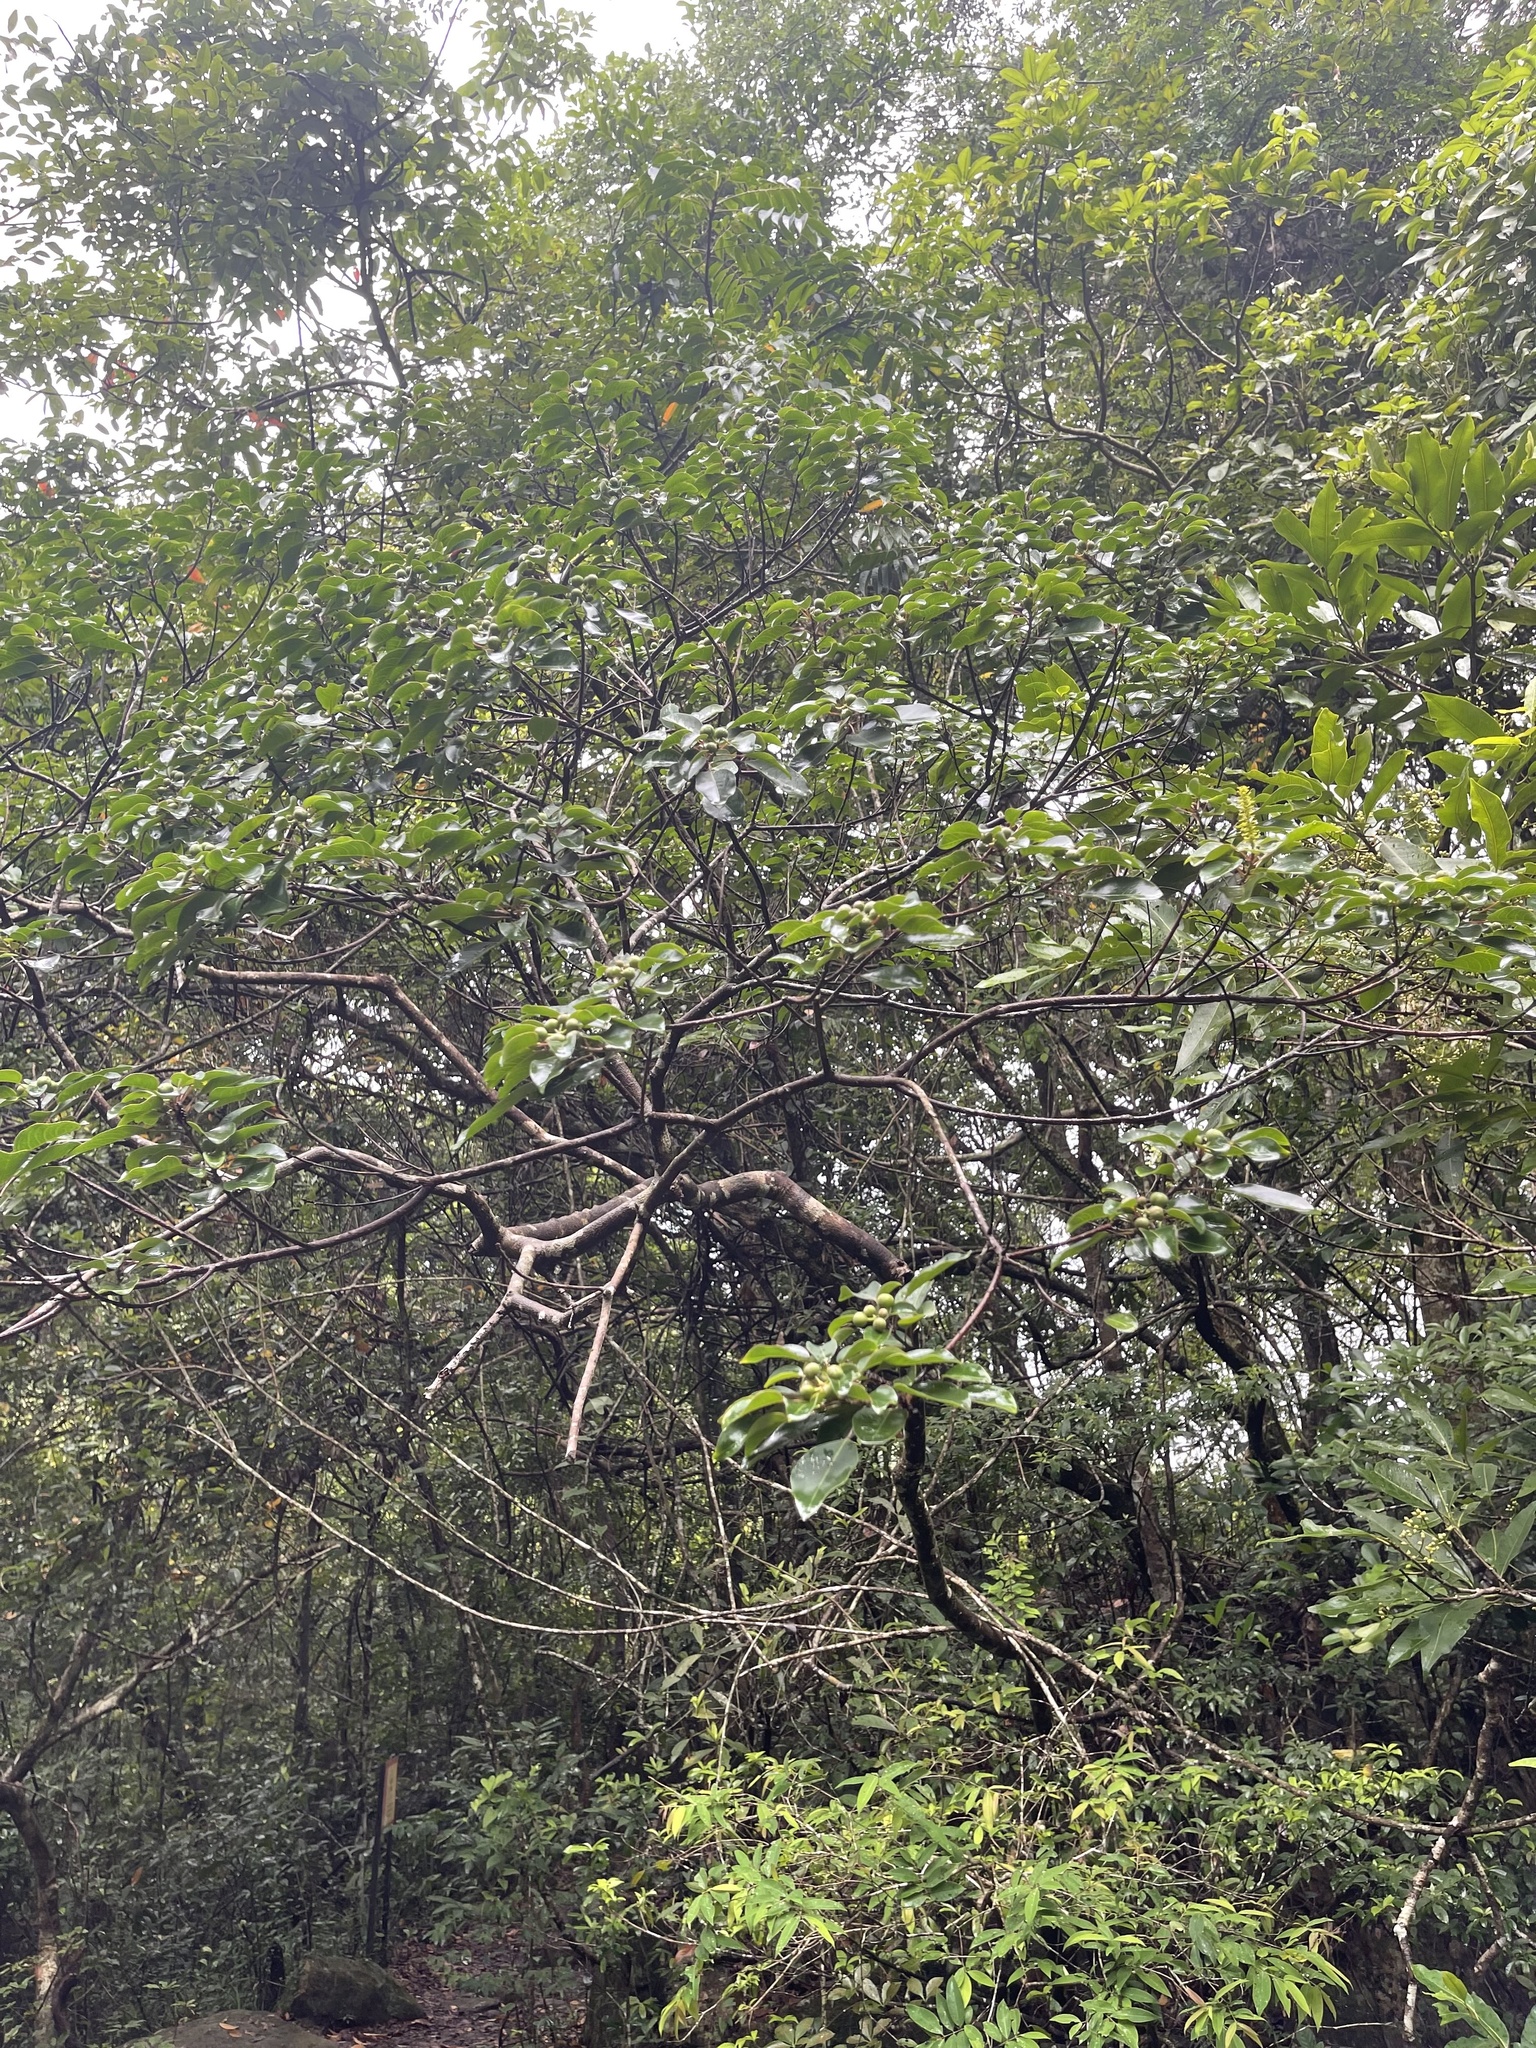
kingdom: Plantae
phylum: Tracheophyta
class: Magnoliopsida
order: Malpighiales
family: Euphorbiaceae
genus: Triadica
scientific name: Triadica cochinchinensis
